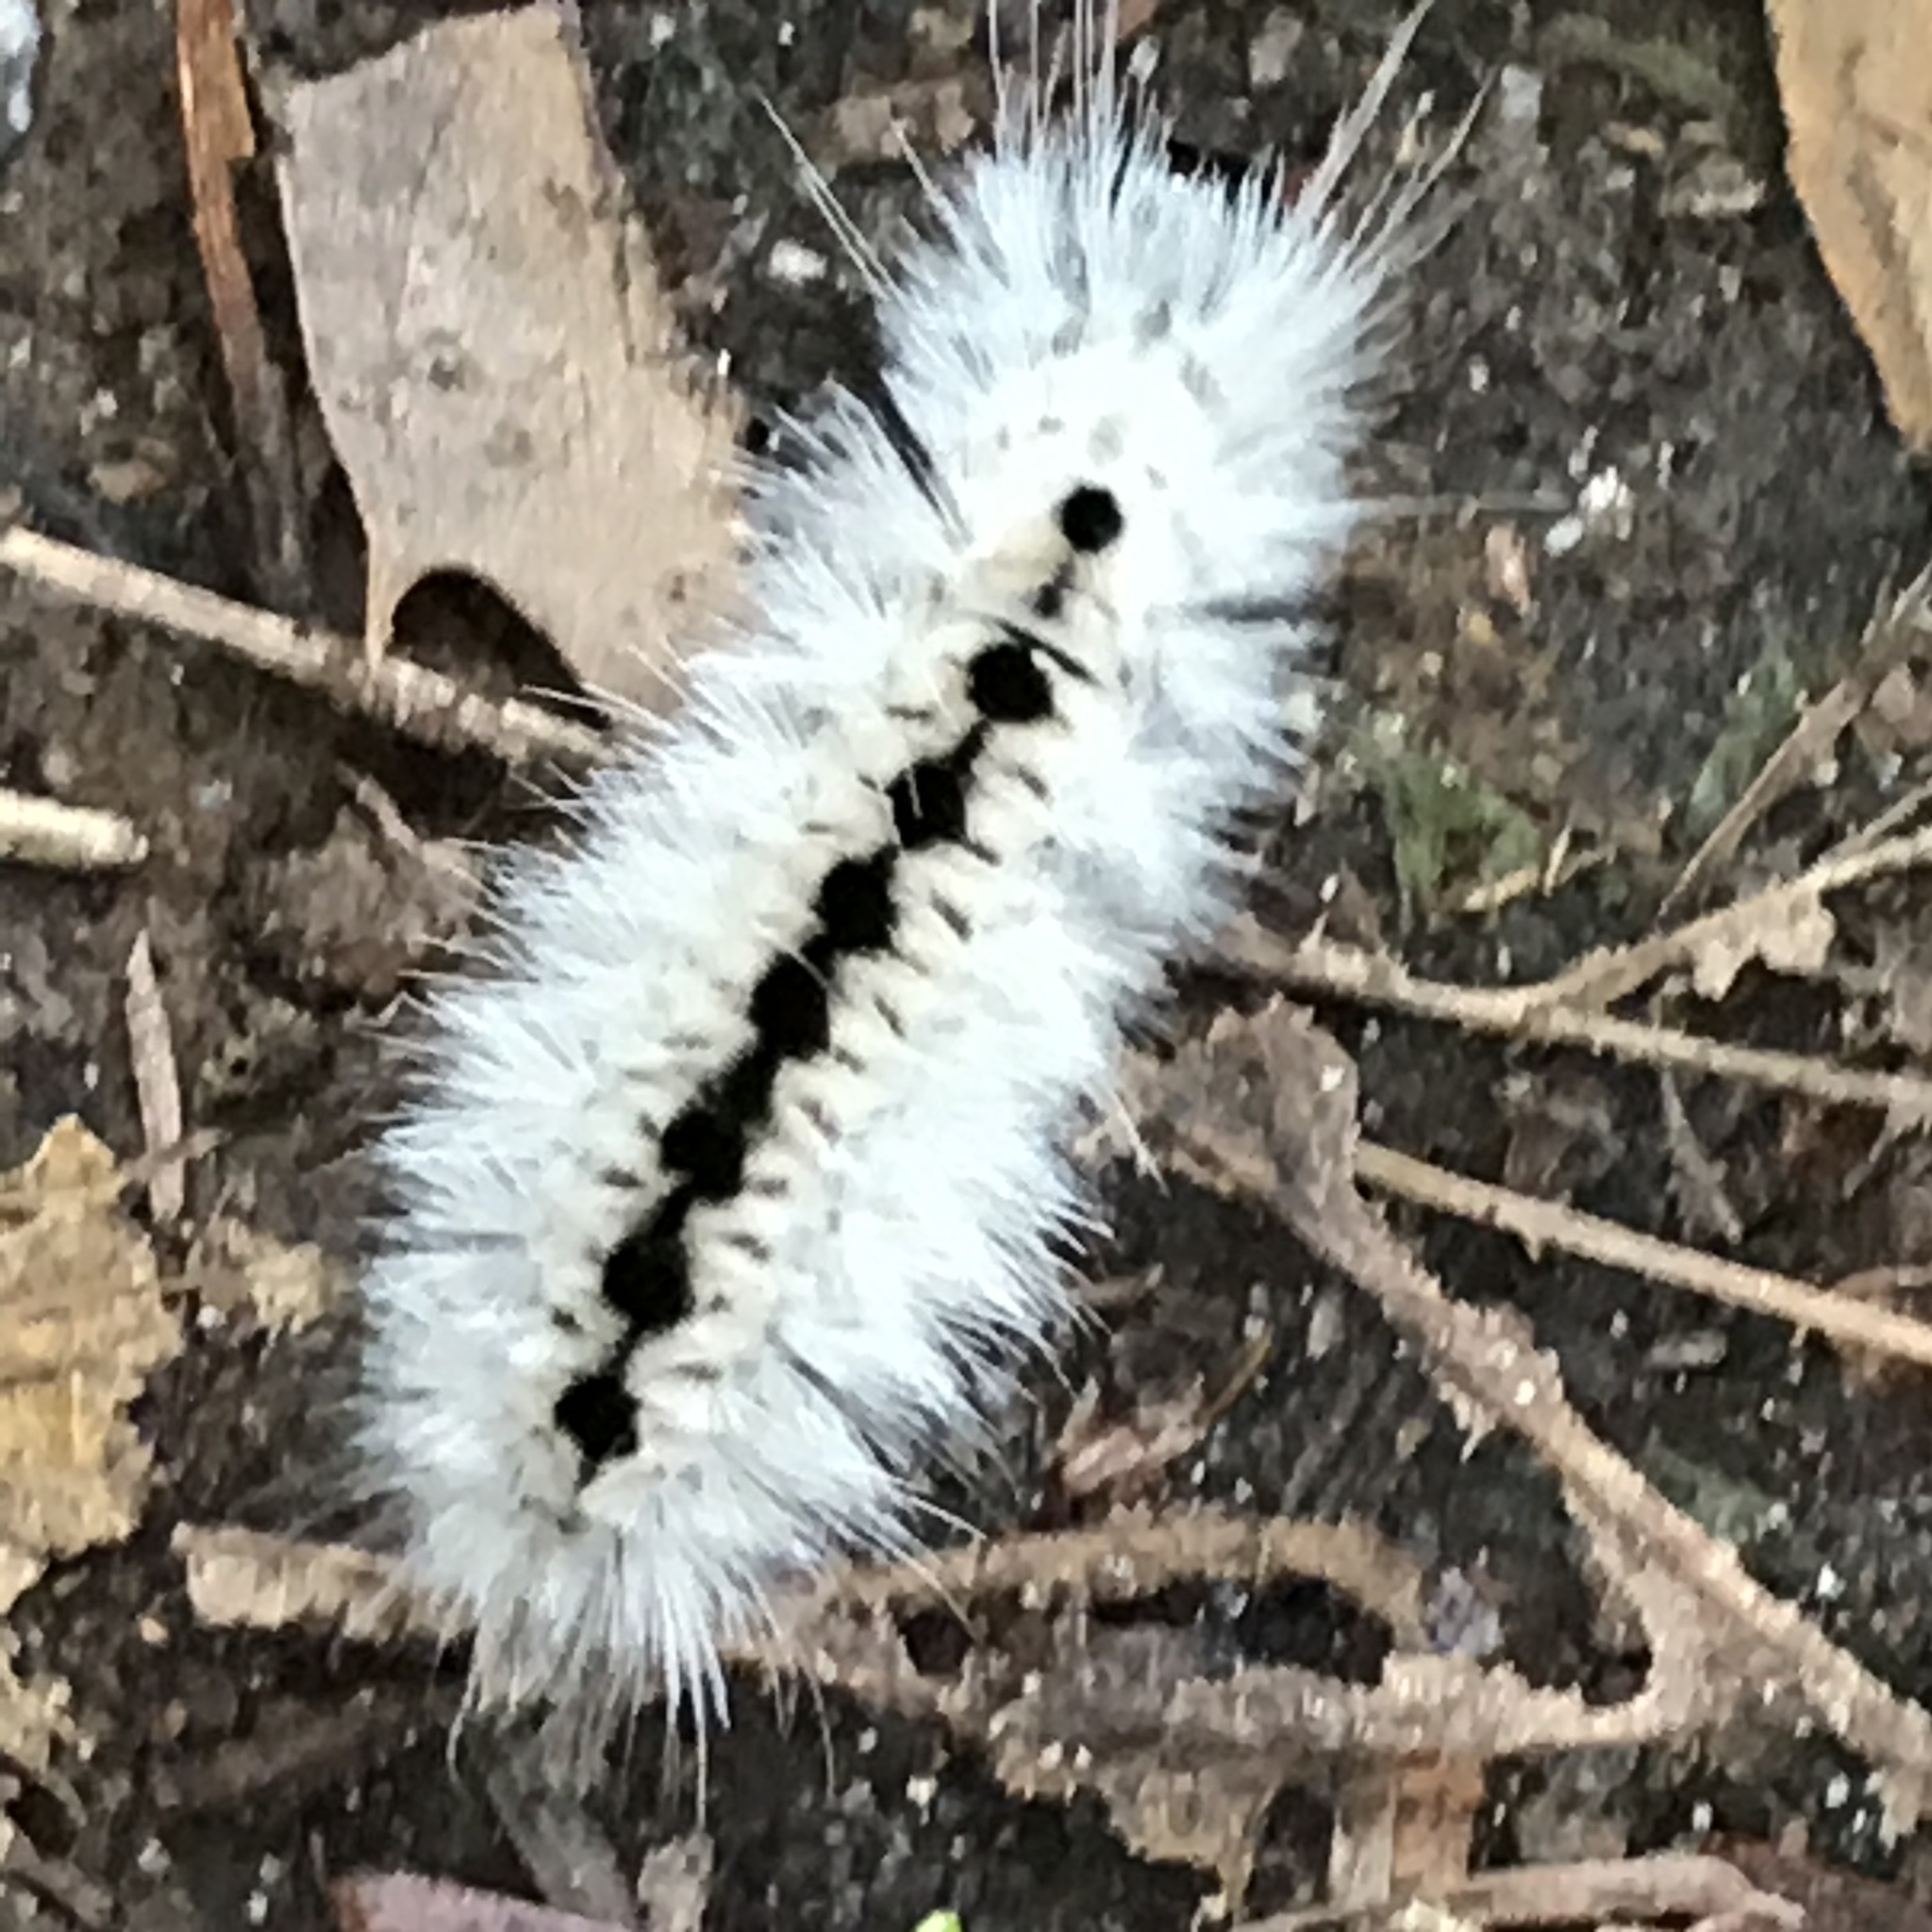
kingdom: Animalia
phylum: Arthropoda
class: Insecta
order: Lepidoptera
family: Erebidae
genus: Lophocampa
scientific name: Lophocampa caryae
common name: Hickory tussock moth
